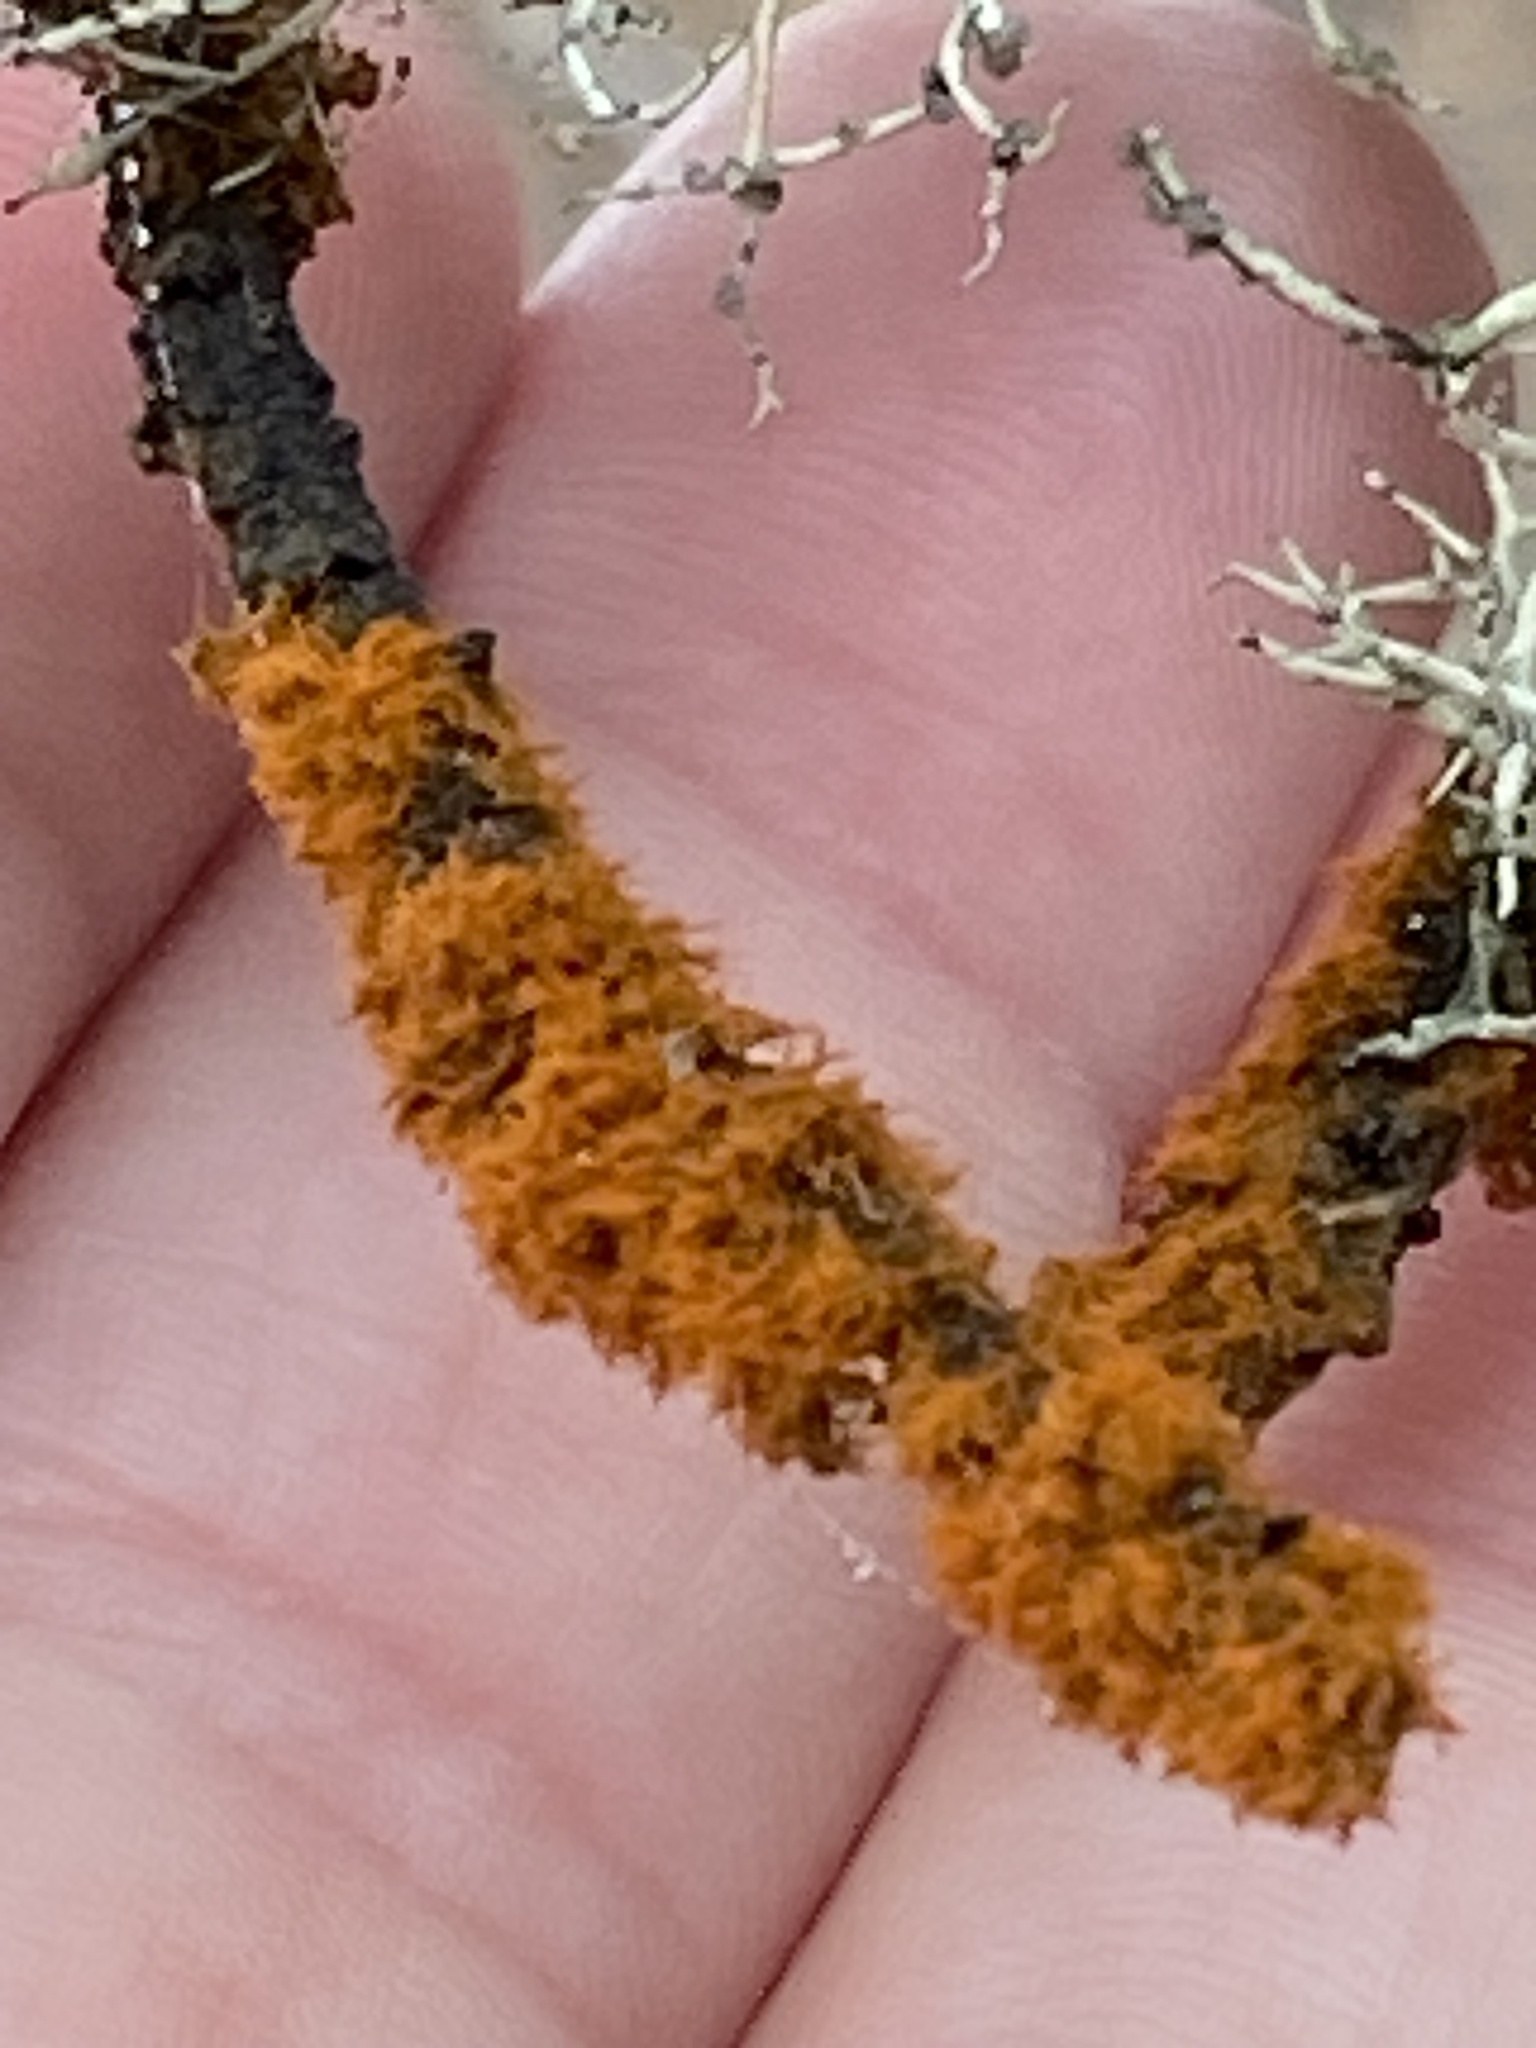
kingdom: Plantae
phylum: Chlorophyta
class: Ulvophyceae
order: Trentepohliales
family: Trentepohliaceae
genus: Trentepohlia
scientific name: Trentepohlia aurea
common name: Orange rock hair
